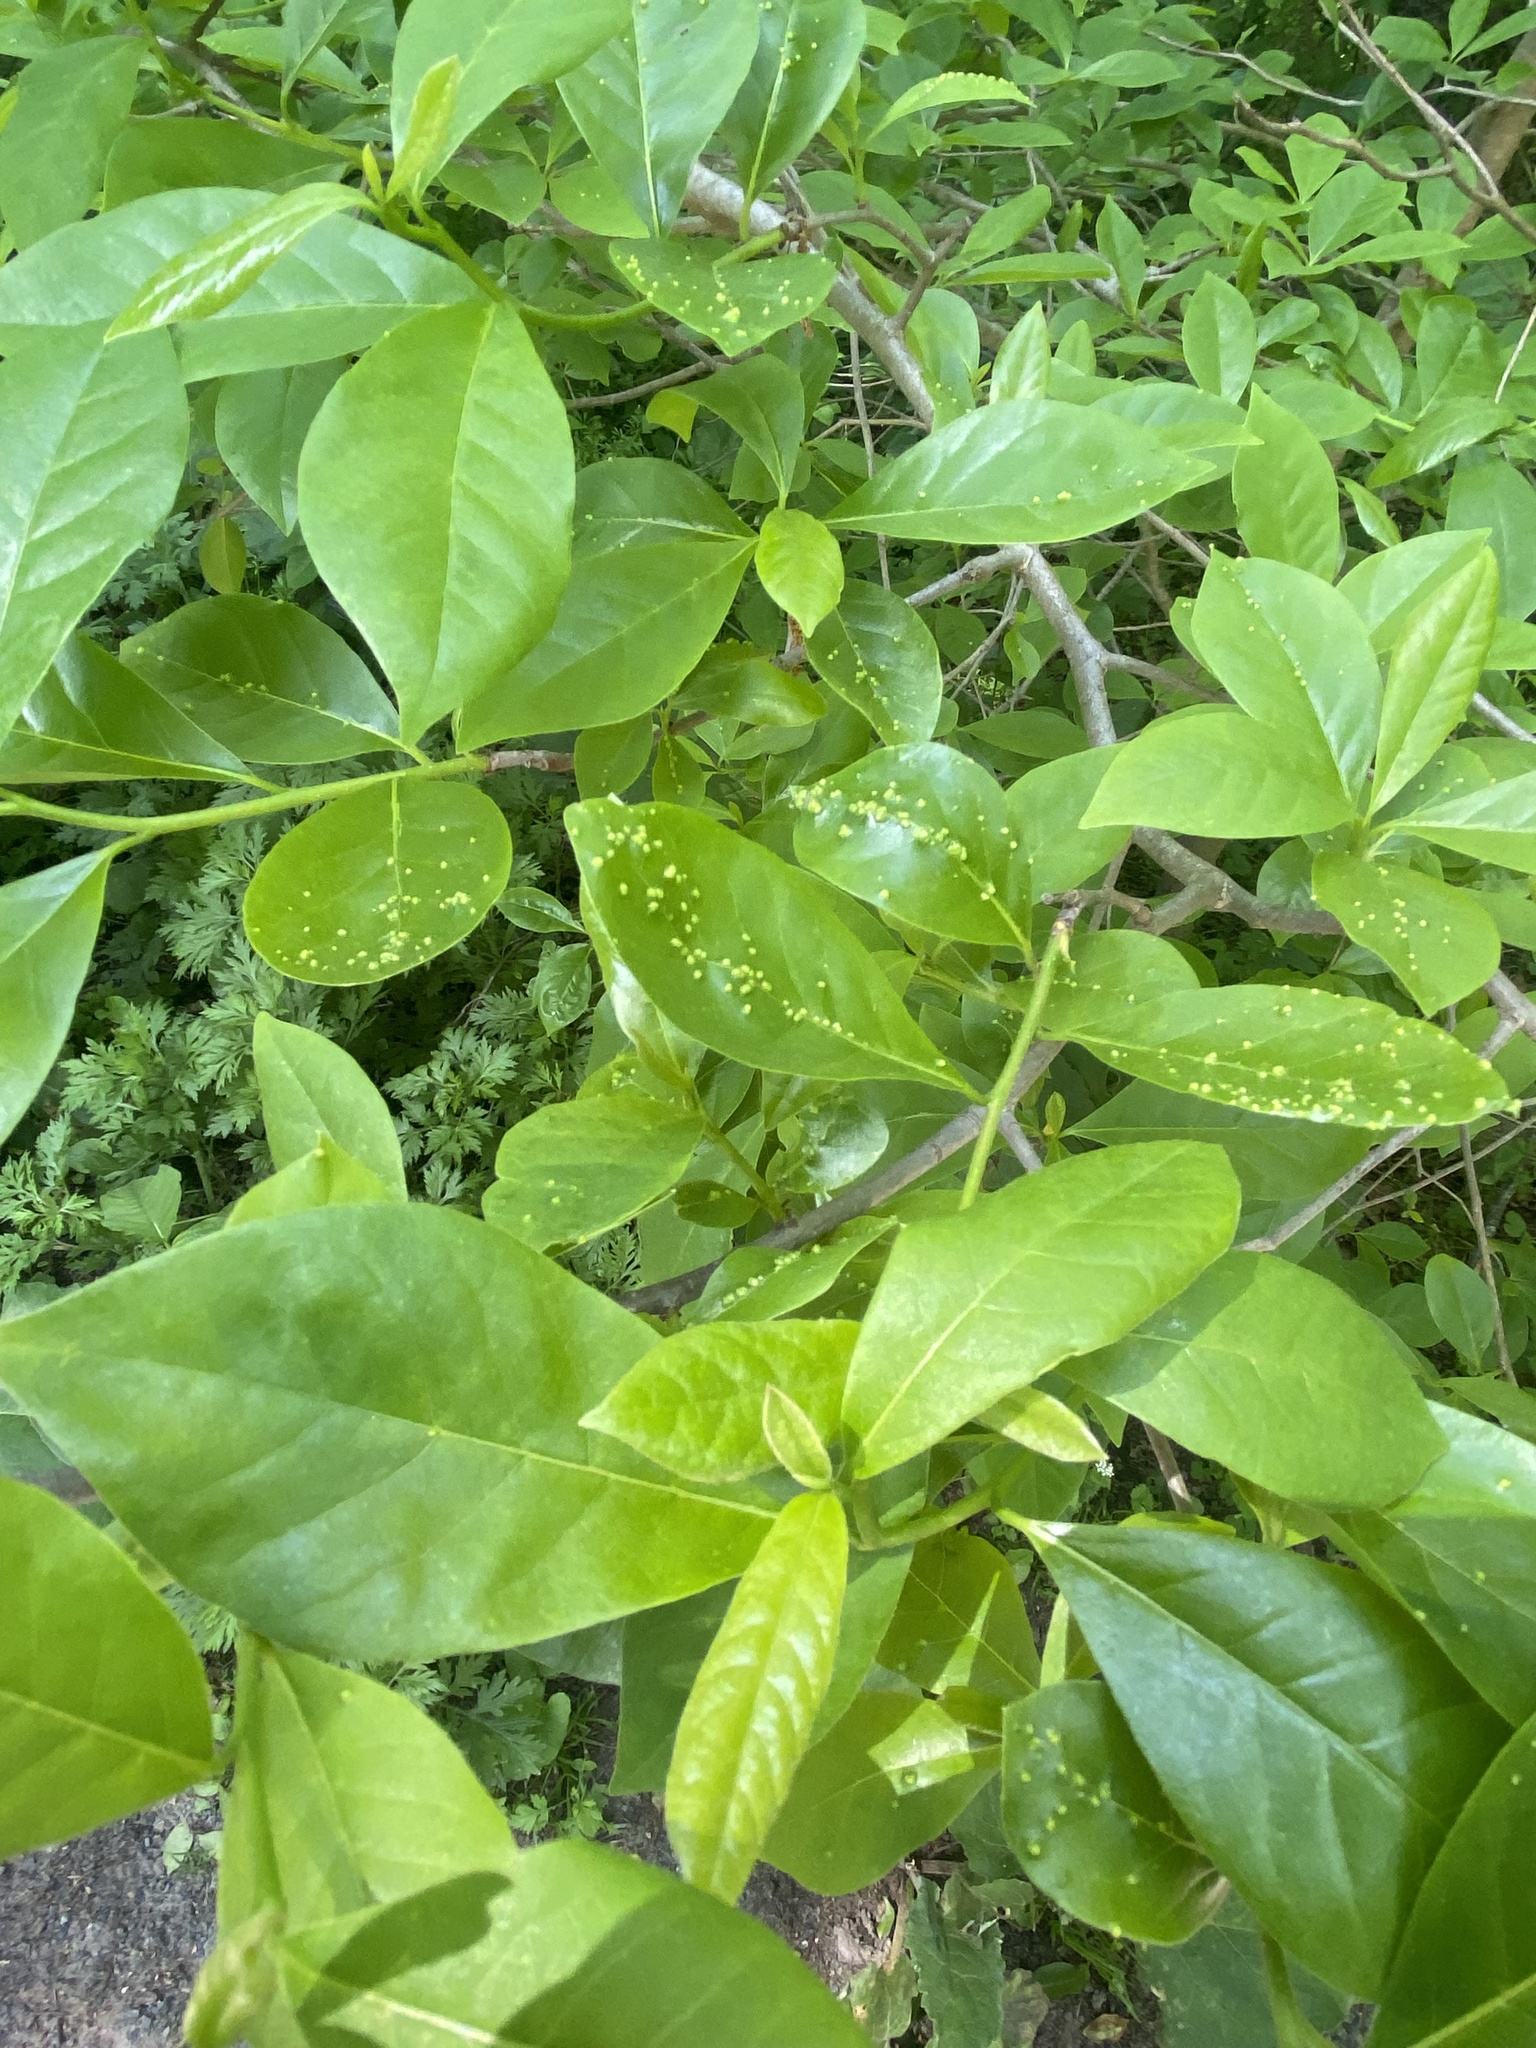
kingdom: Animalia
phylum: Arthropoda
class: Arachnida
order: Trombidiformes
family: Eriophyidae
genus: Aceria
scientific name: Aceria
